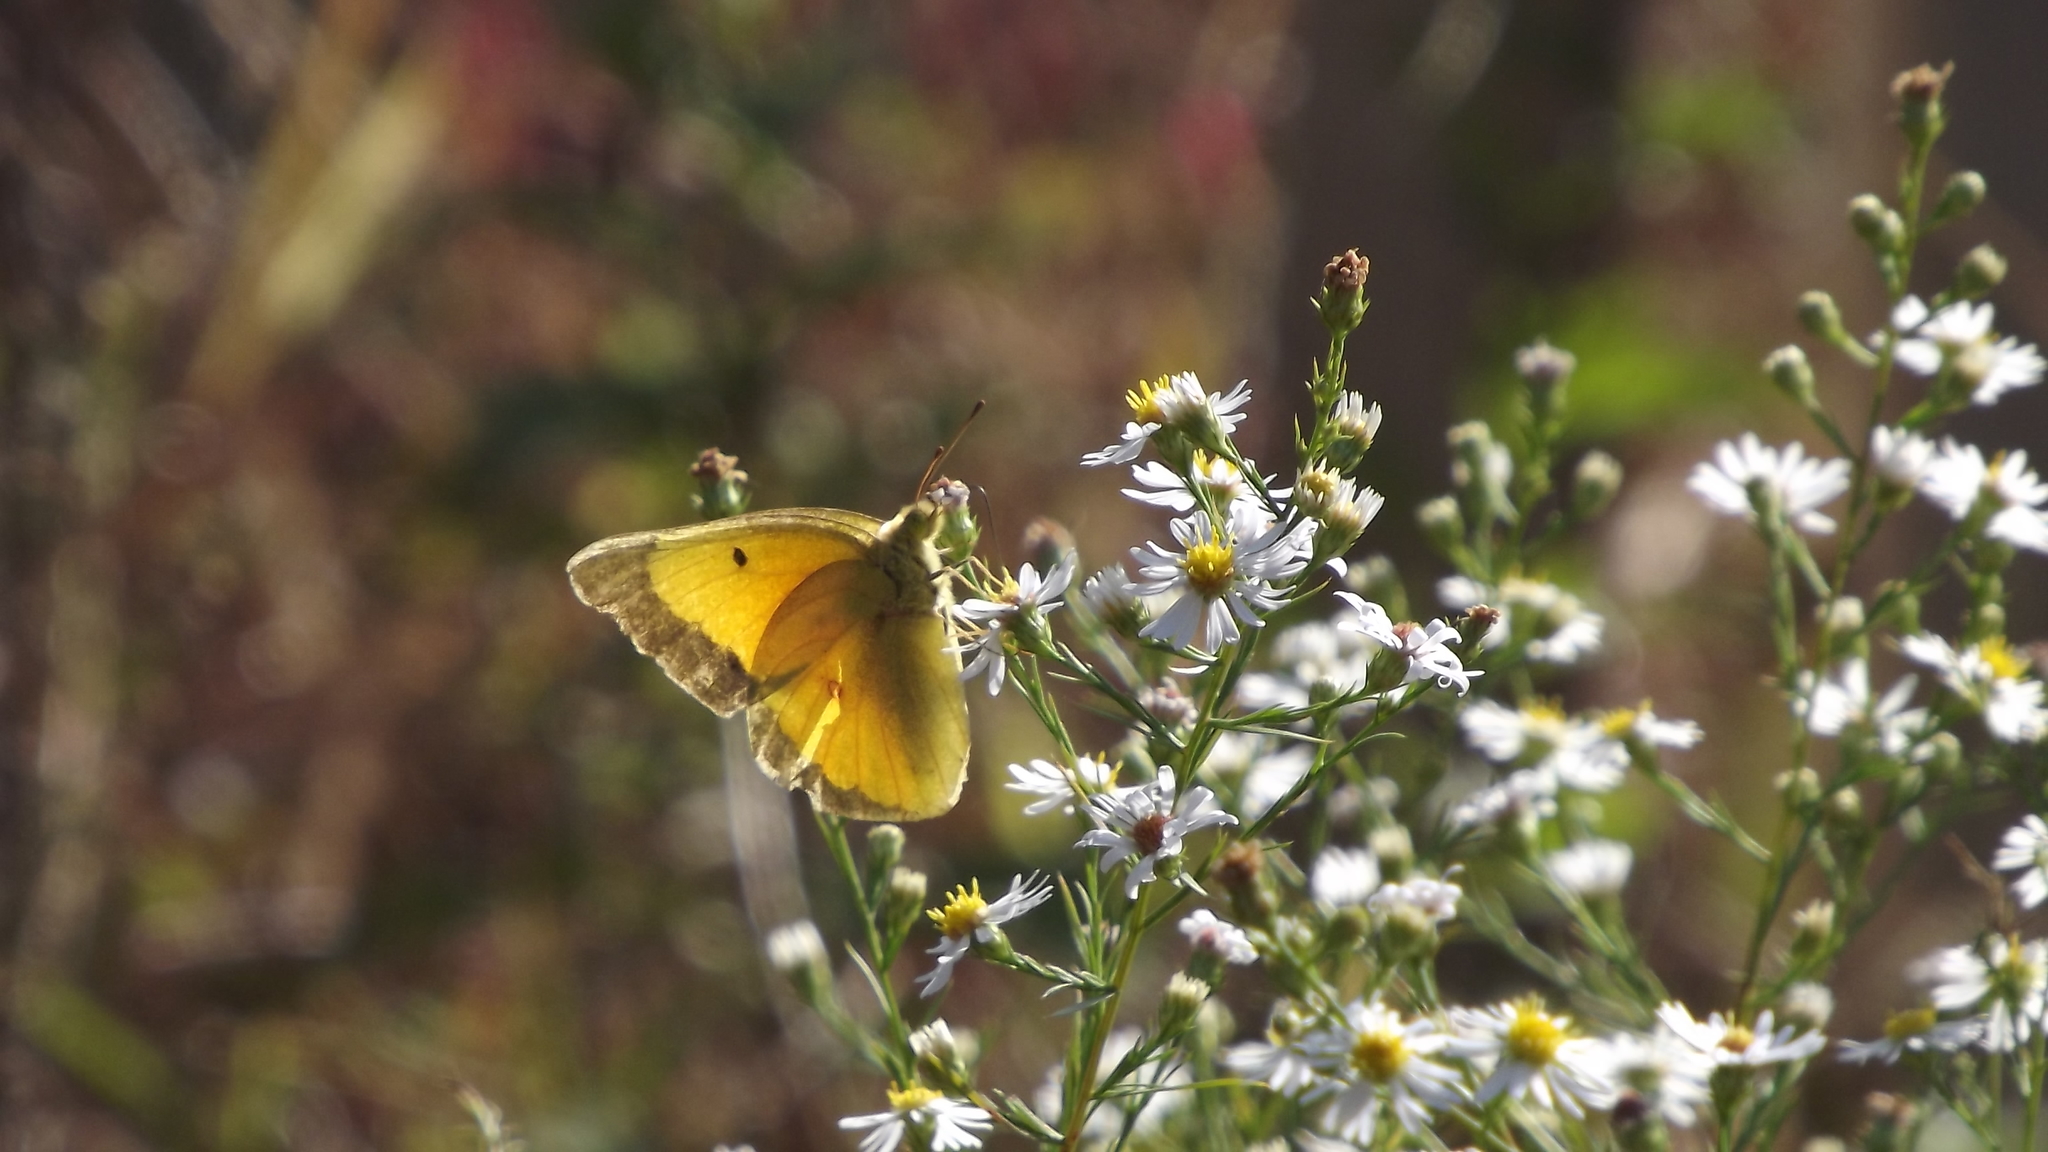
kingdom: Animalia
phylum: Arthropoda
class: Insecta
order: Lepidoptera
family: Pieridae
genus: Colias
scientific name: Colias eurytheme
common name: Alfalfa butterfly
